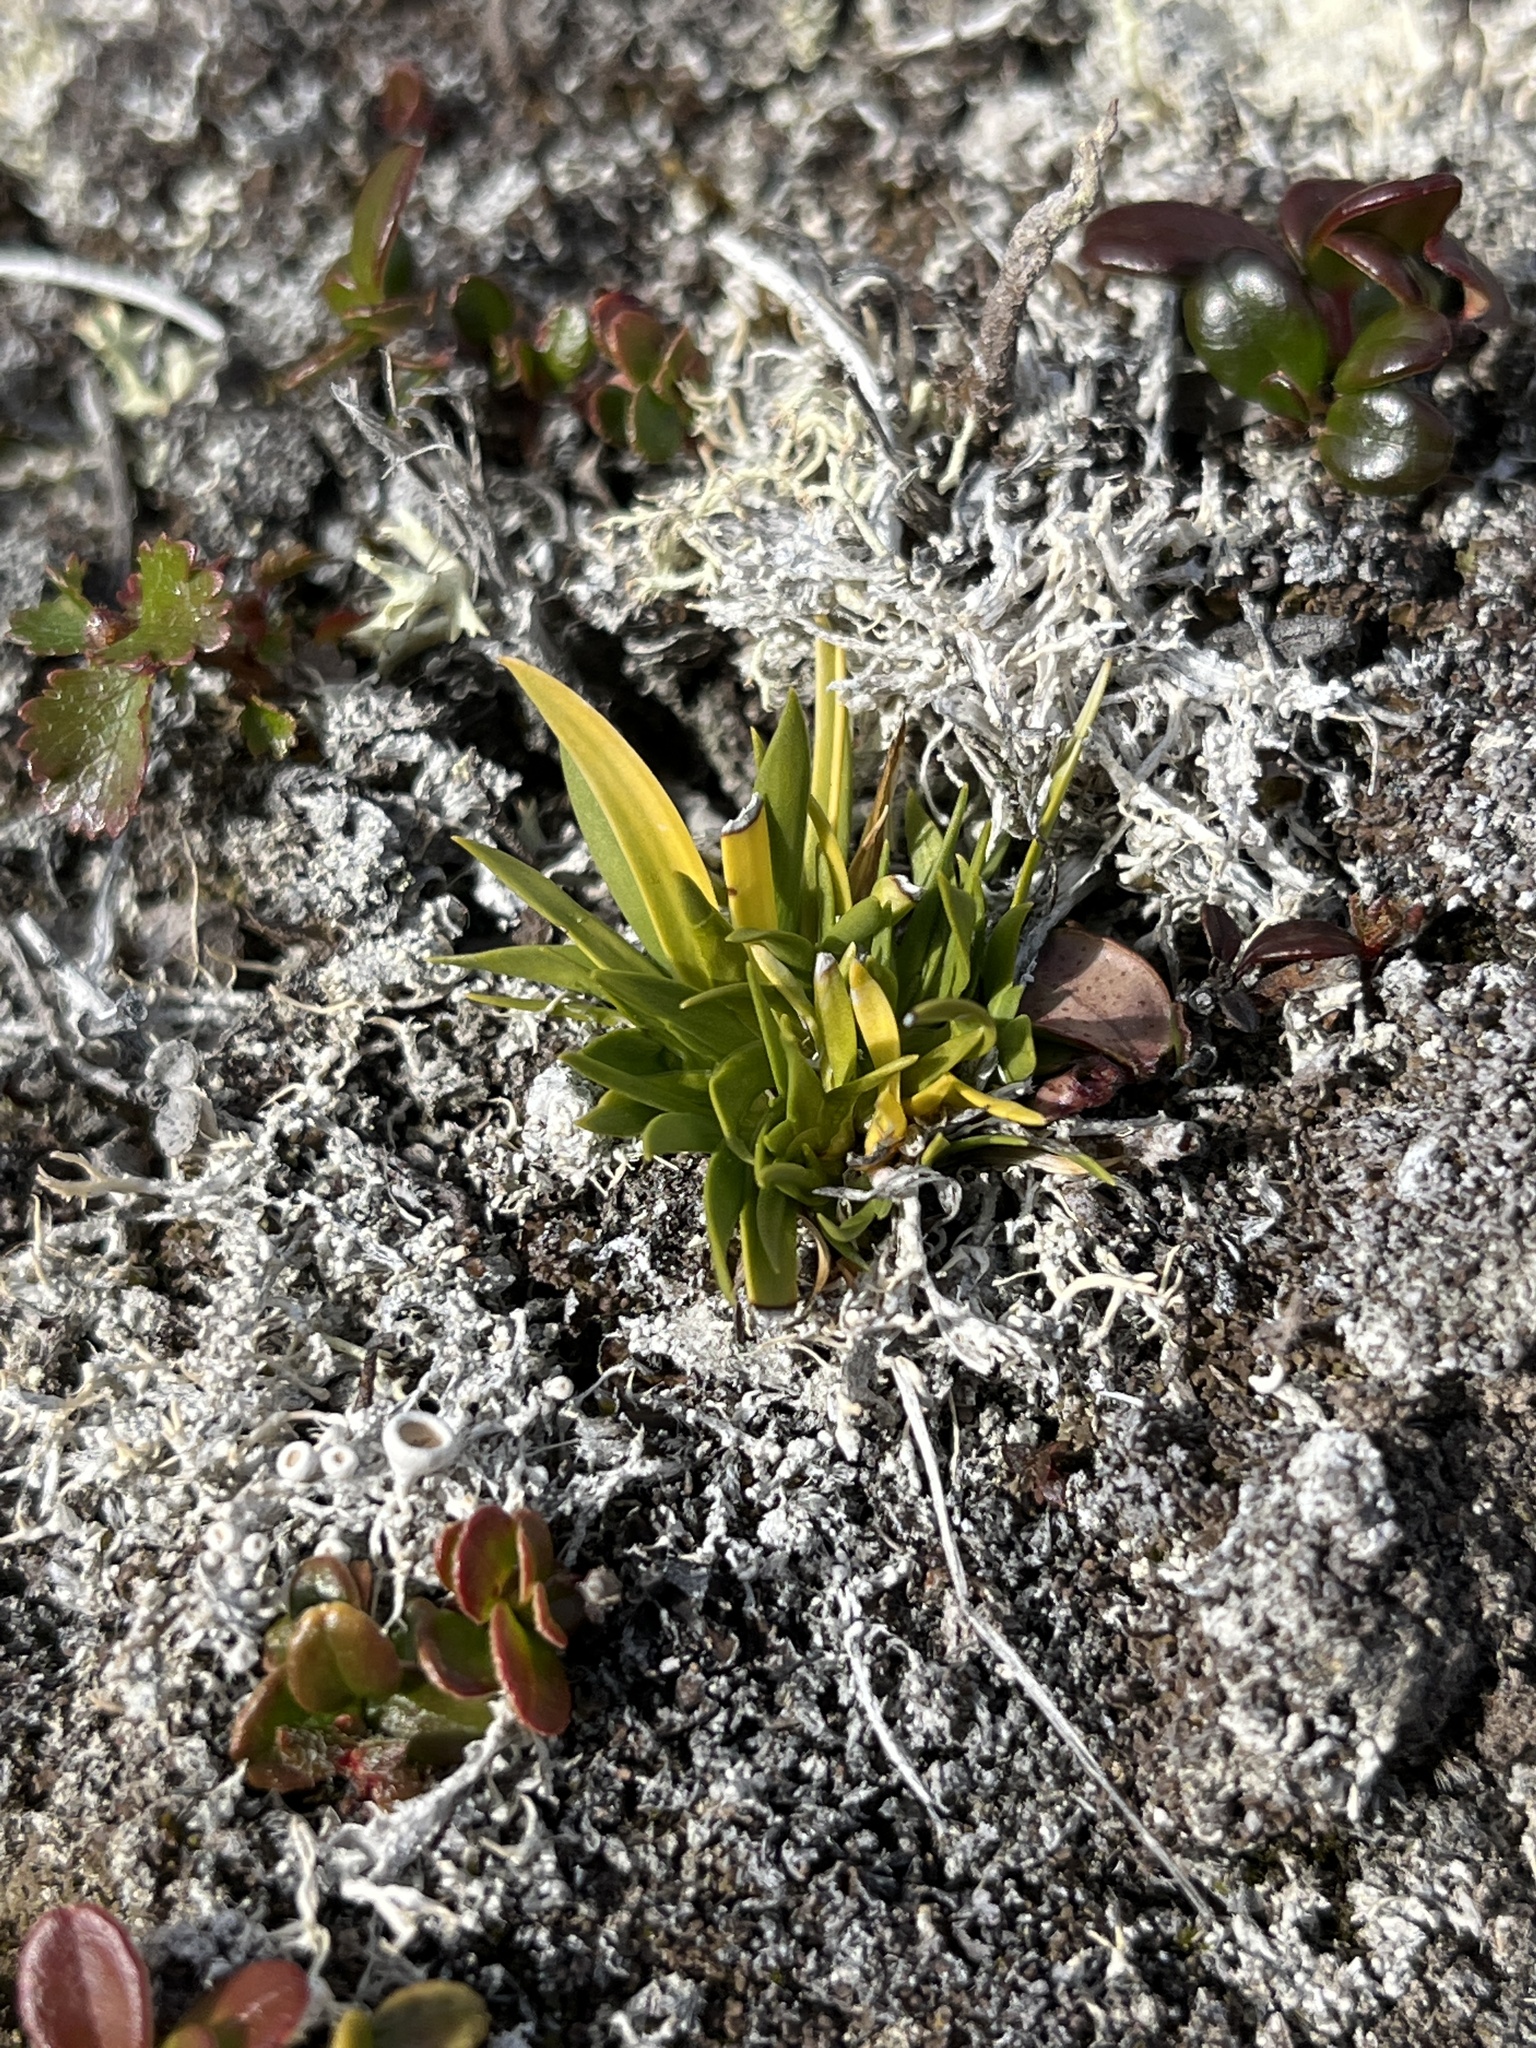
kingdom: Plantae
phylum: Tracheophyta
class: Liliopsida
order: Alismatales
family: Tofieldiaceae
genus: Tofieldia
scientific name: Tofieldia pusilla
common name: Scottish false asphodel
